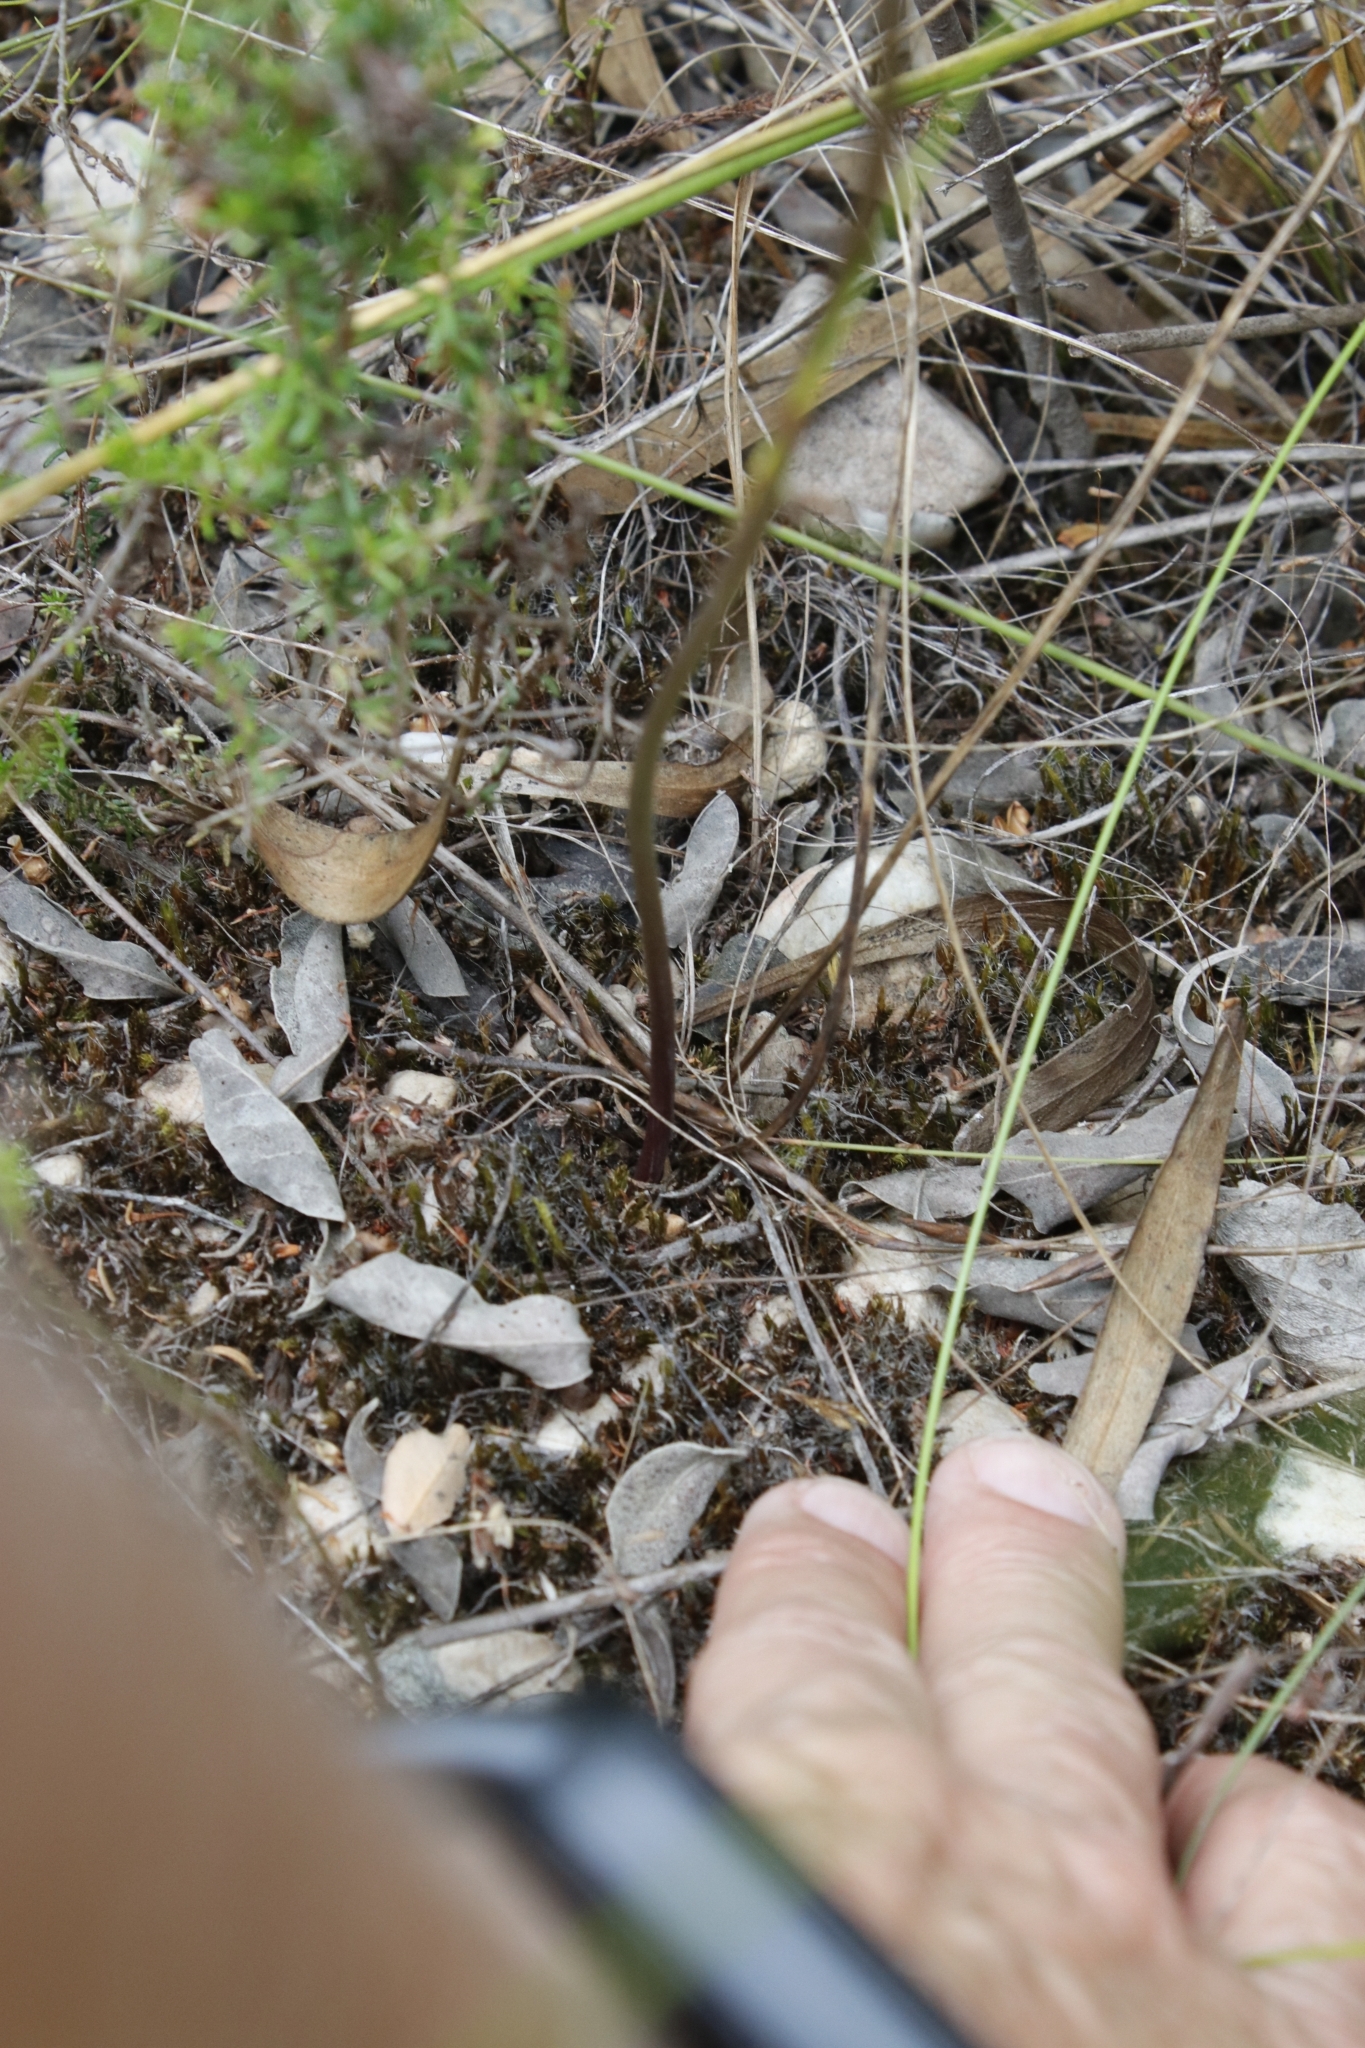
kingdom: Plantae
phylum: Tracheophyta
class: Liliopsida
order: Asparagales
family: Asparagaceae
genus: Drimia
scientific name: Drimia media
